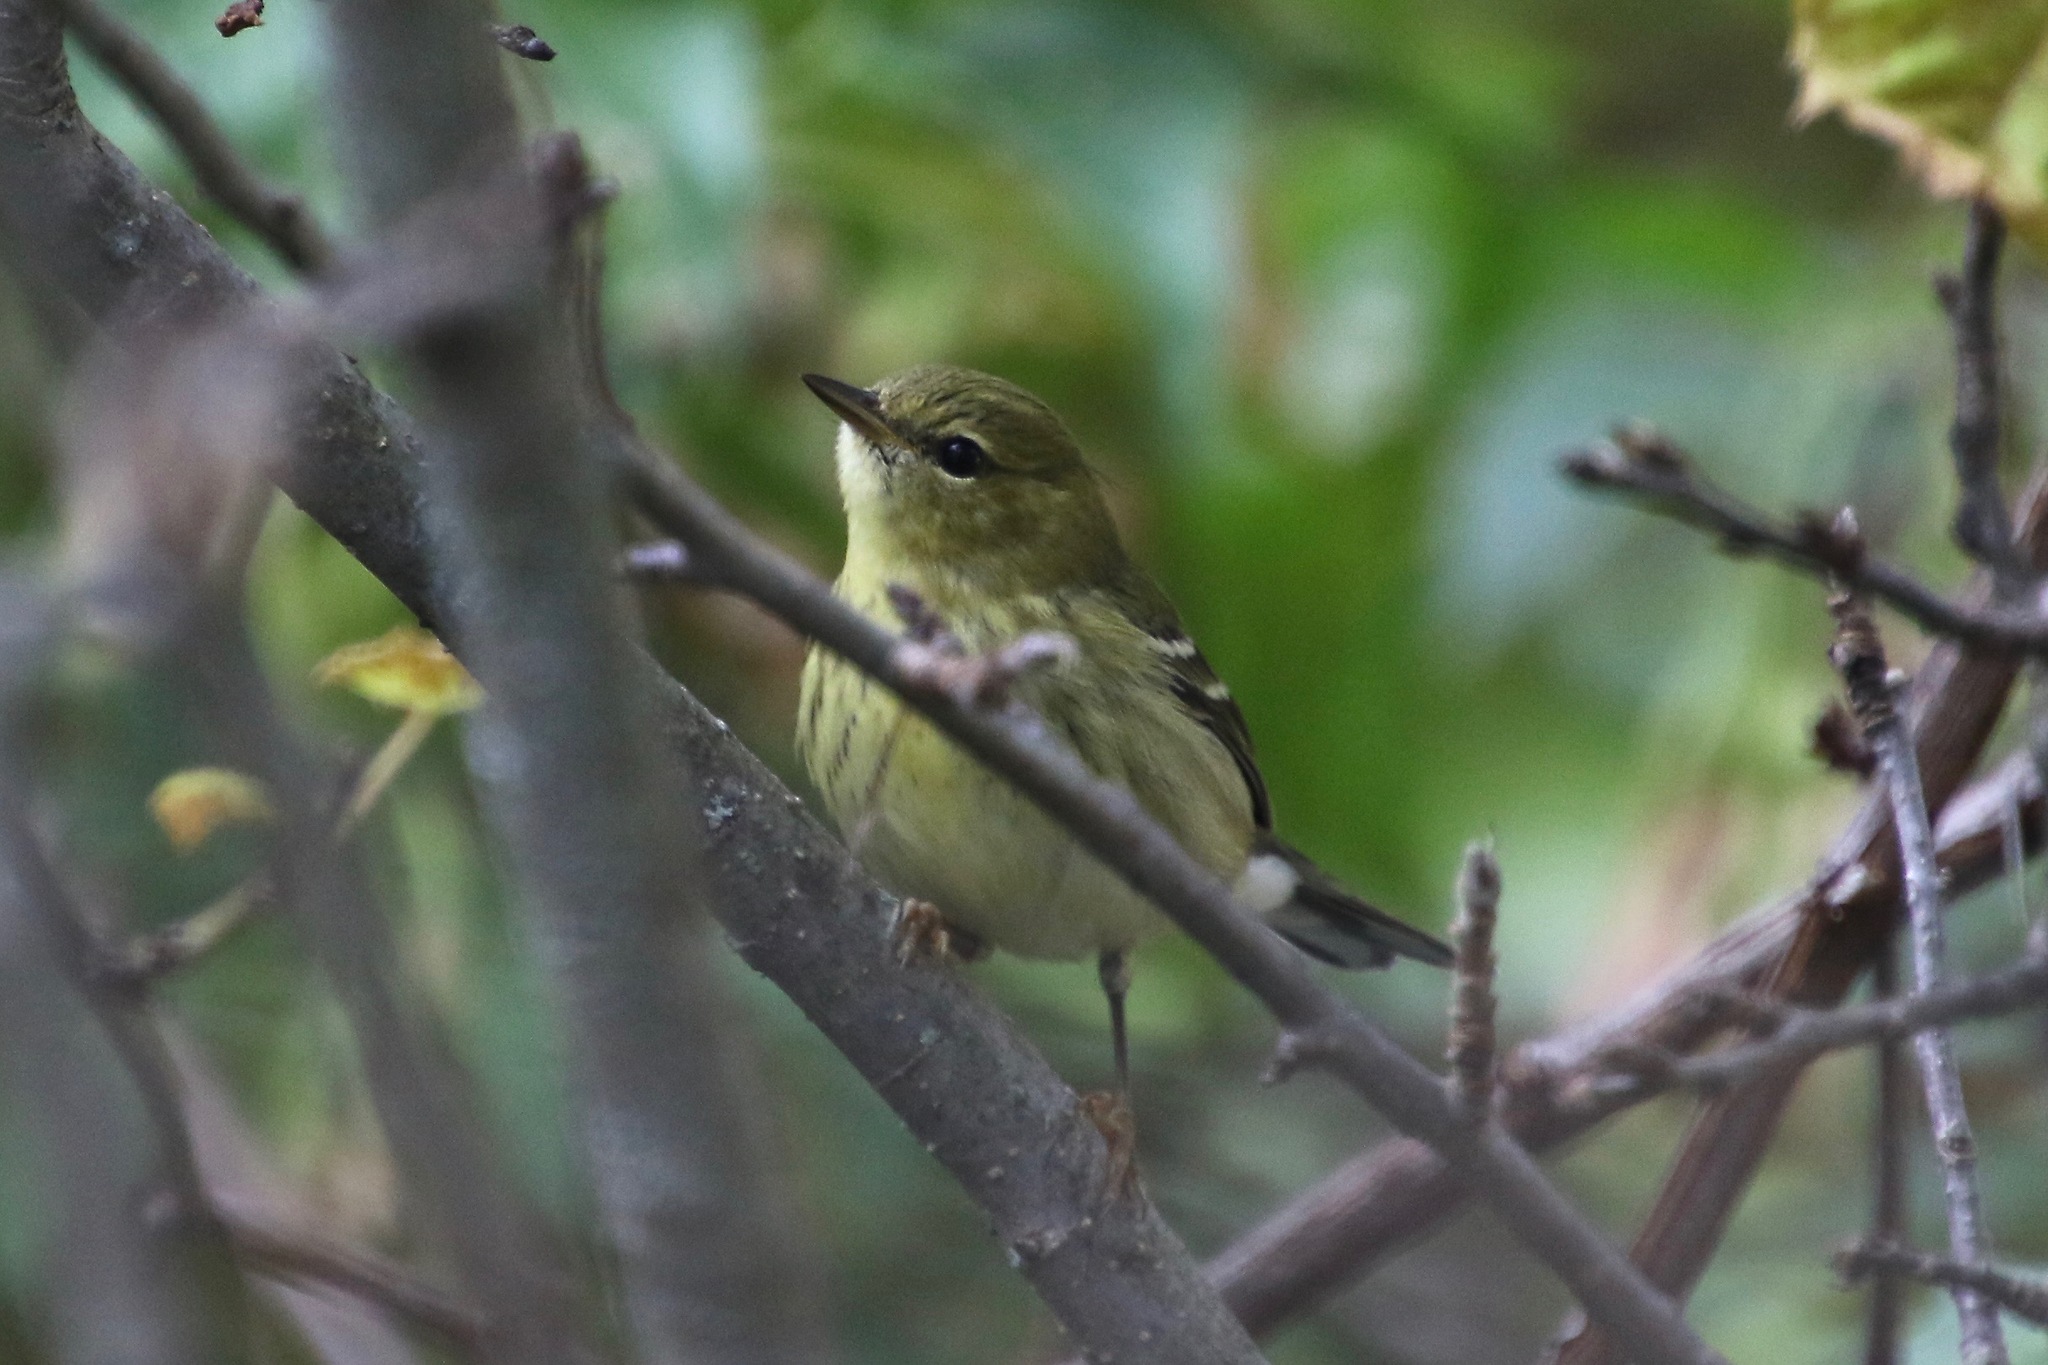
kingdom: Animalia
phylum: Chordata
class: Aves
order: Passeriformes
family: Parulidae
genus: Setophaga
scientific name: Setophaga striata
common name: Blackpoll warbler
